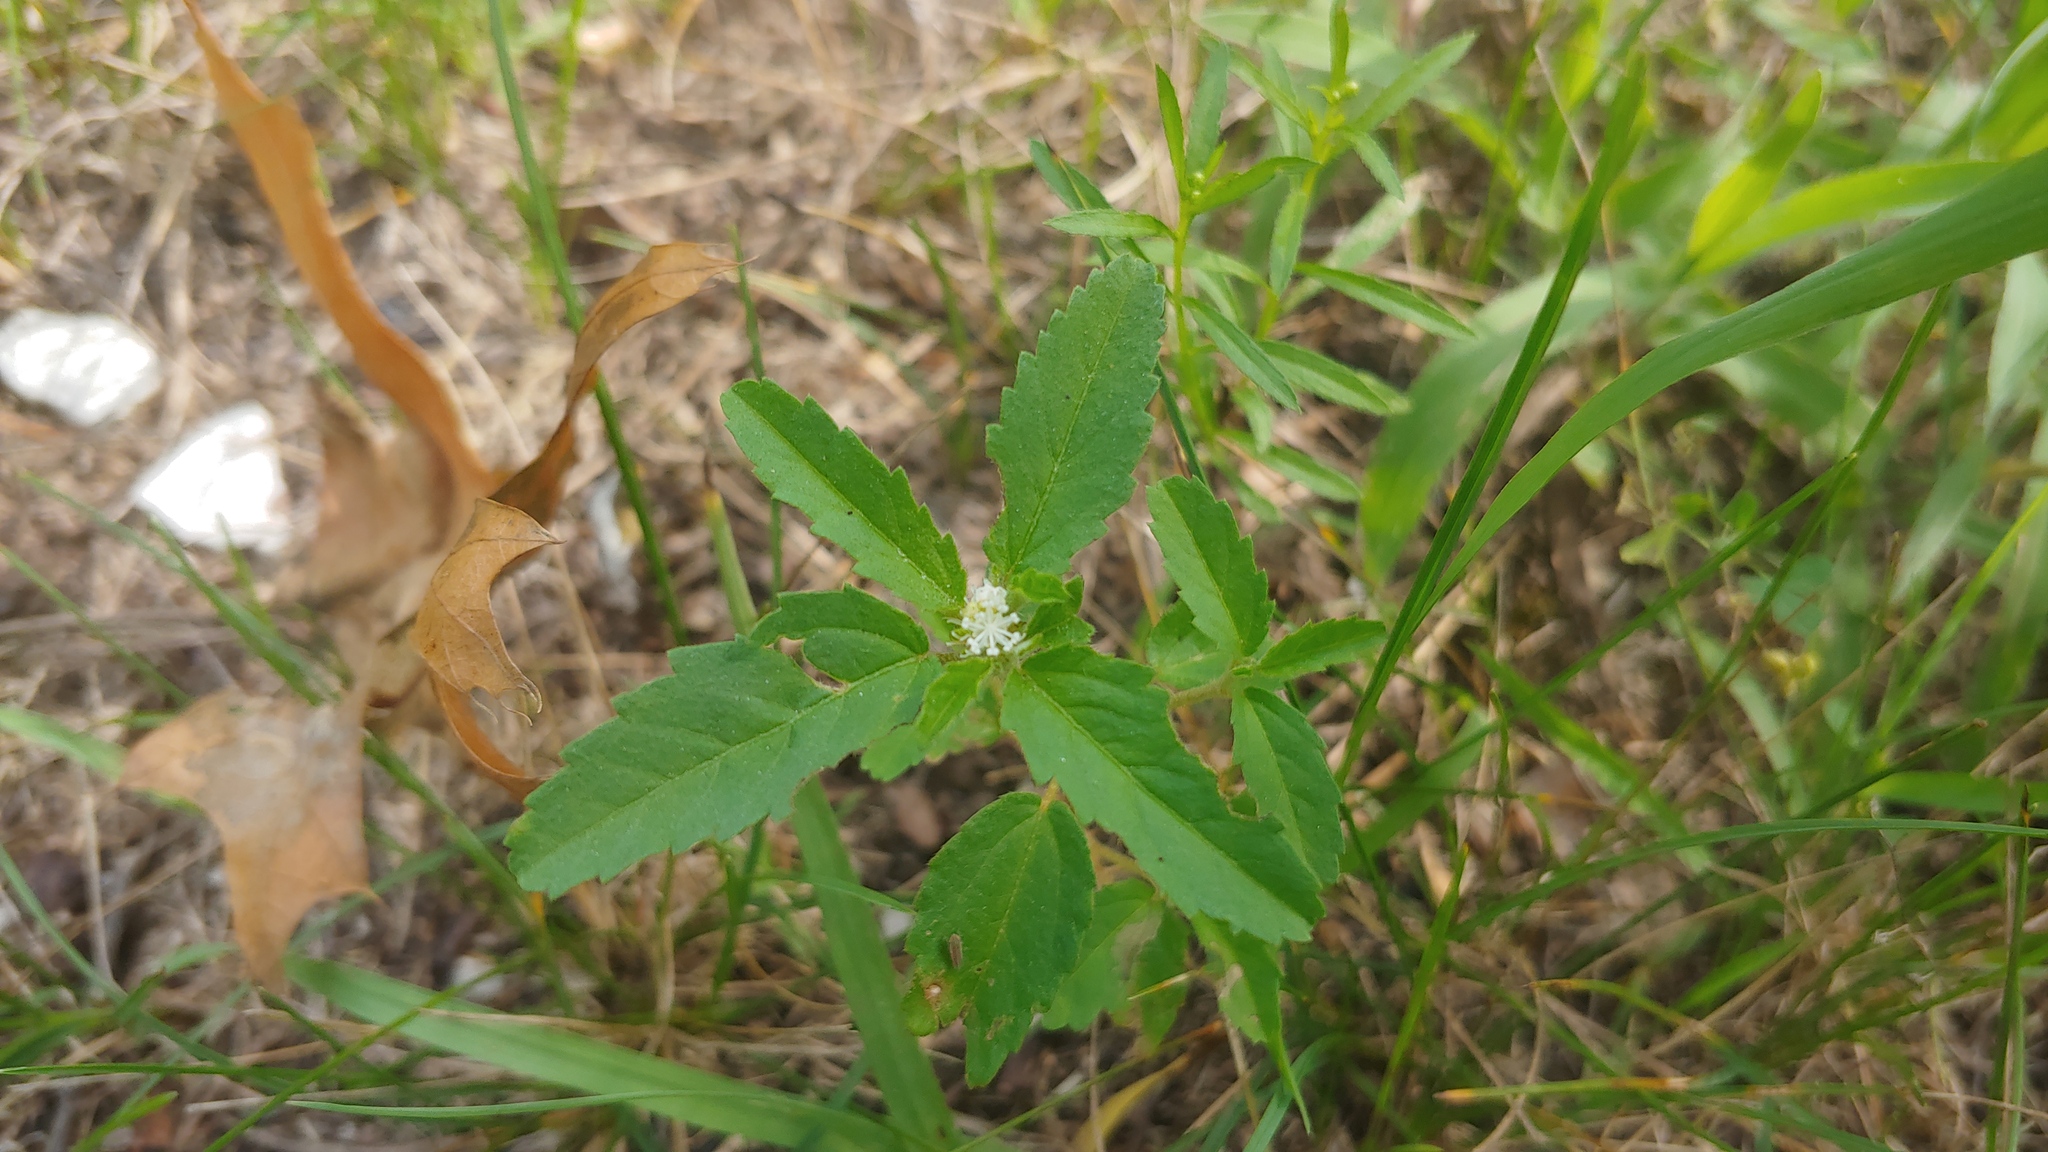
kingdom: Plantae
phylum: Tracheophyta
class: Magnoliopsida
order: Malpighiales
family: Euphorbiaceae
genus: Croton
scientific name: Croton glandulosus
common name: Tropic croton
